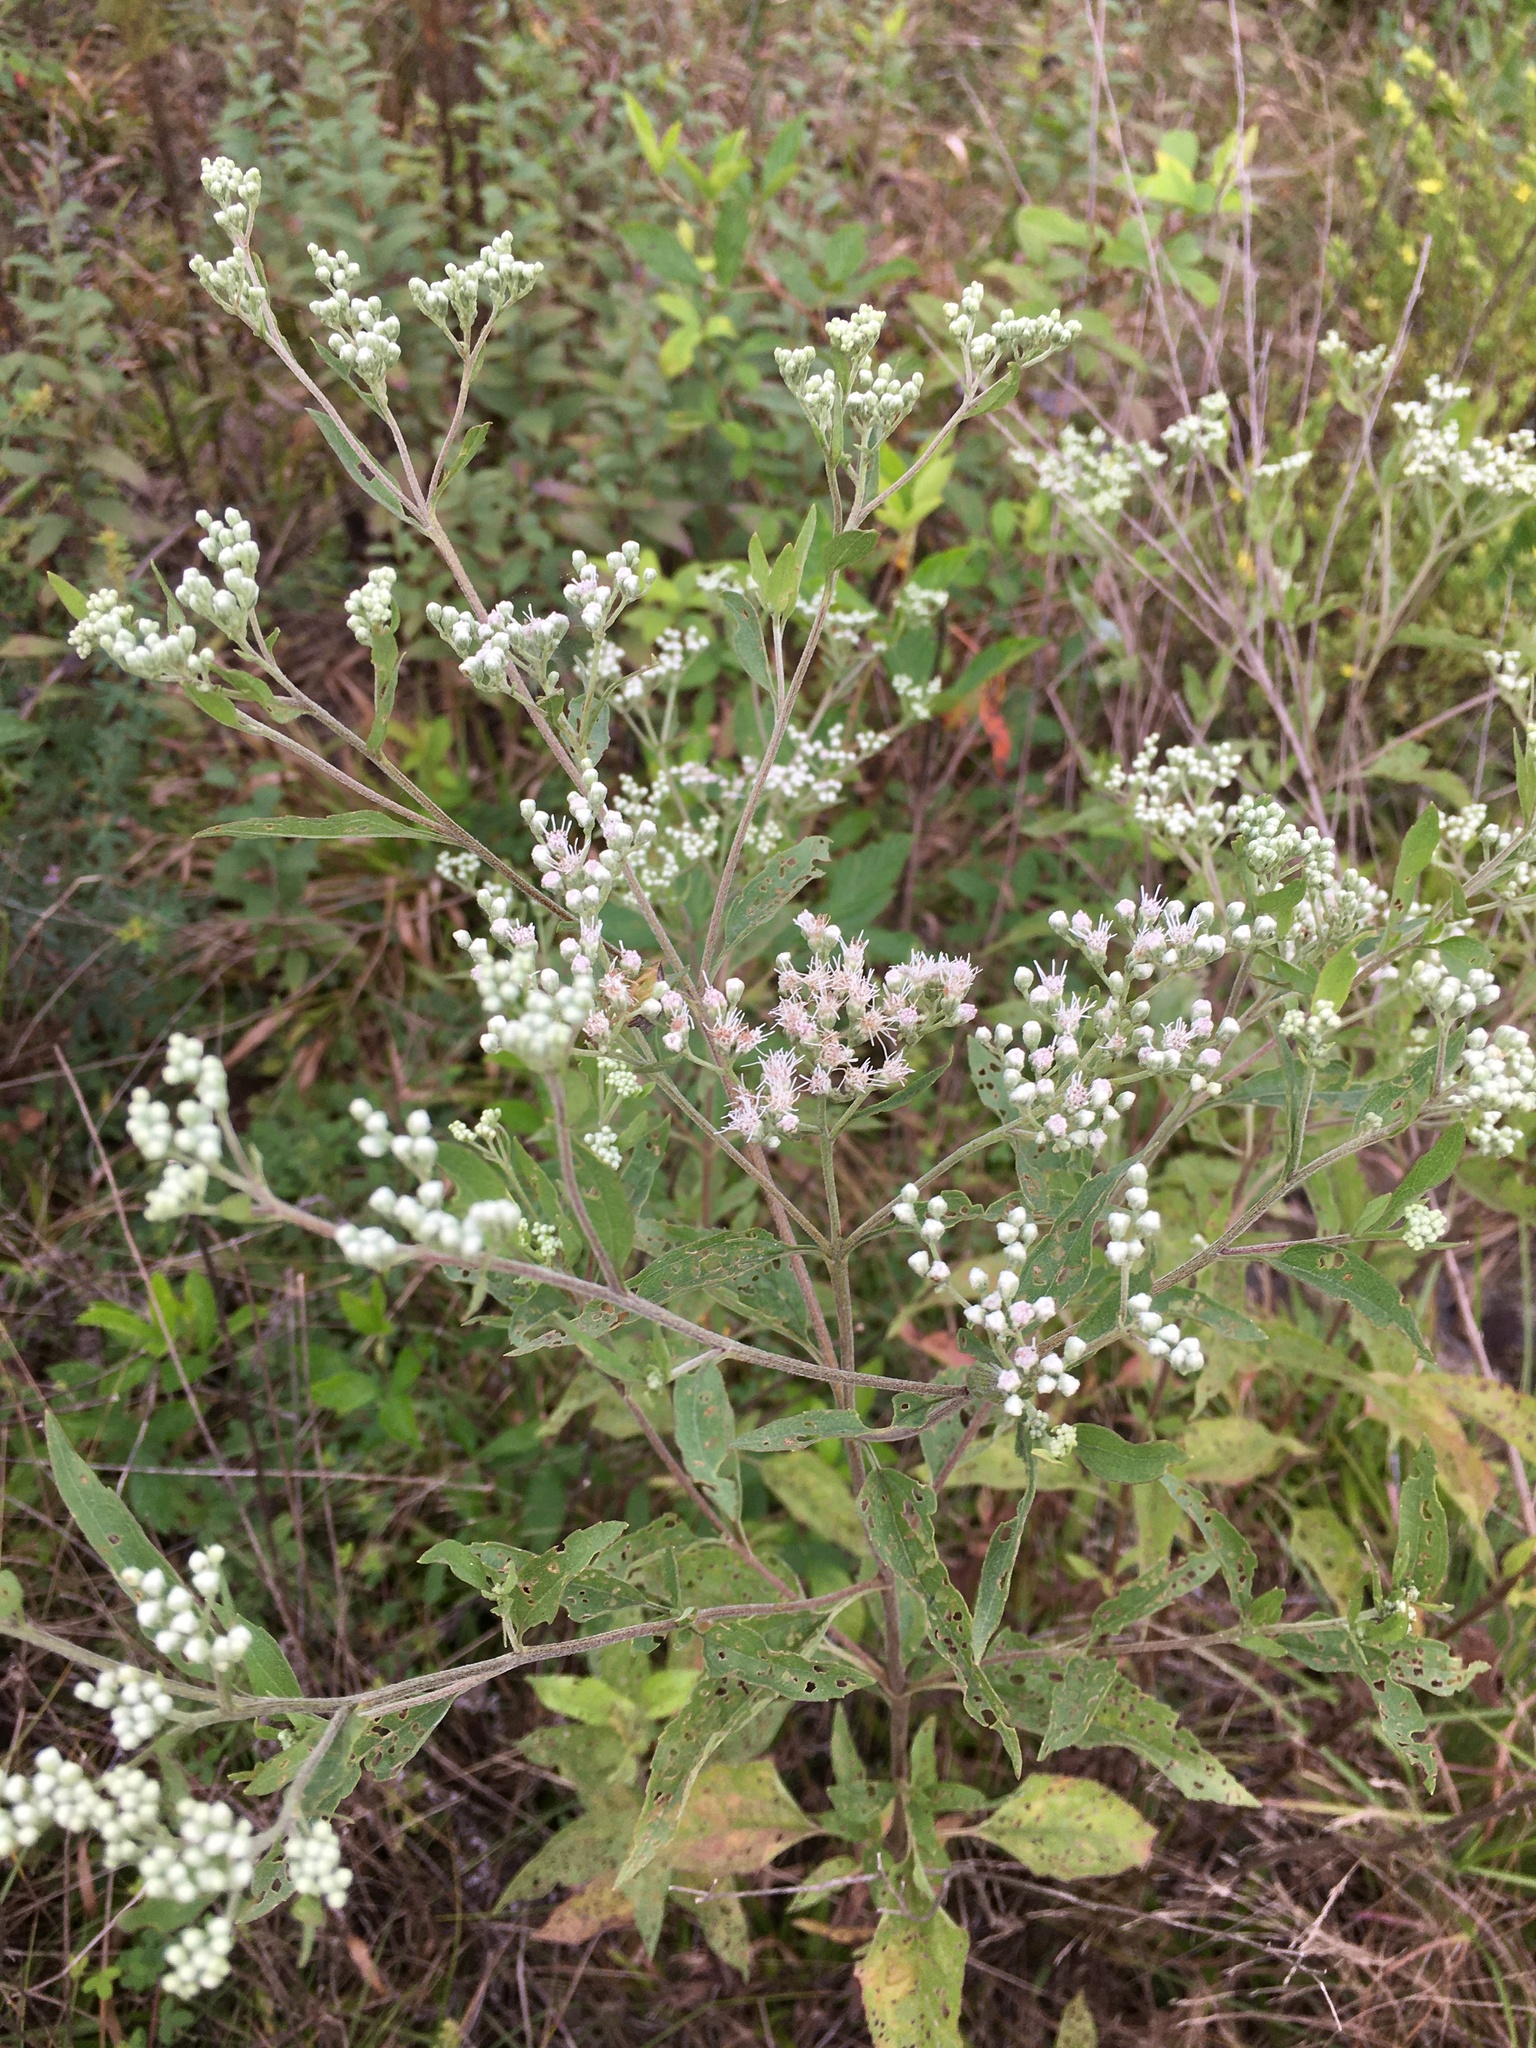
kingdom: Plantae
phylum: Tracheophyta
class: Magnoliopsida
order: Asterales
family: Asteraceae
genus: Eupatorium
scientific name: Eupatorium serotinum
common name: Late boneset
